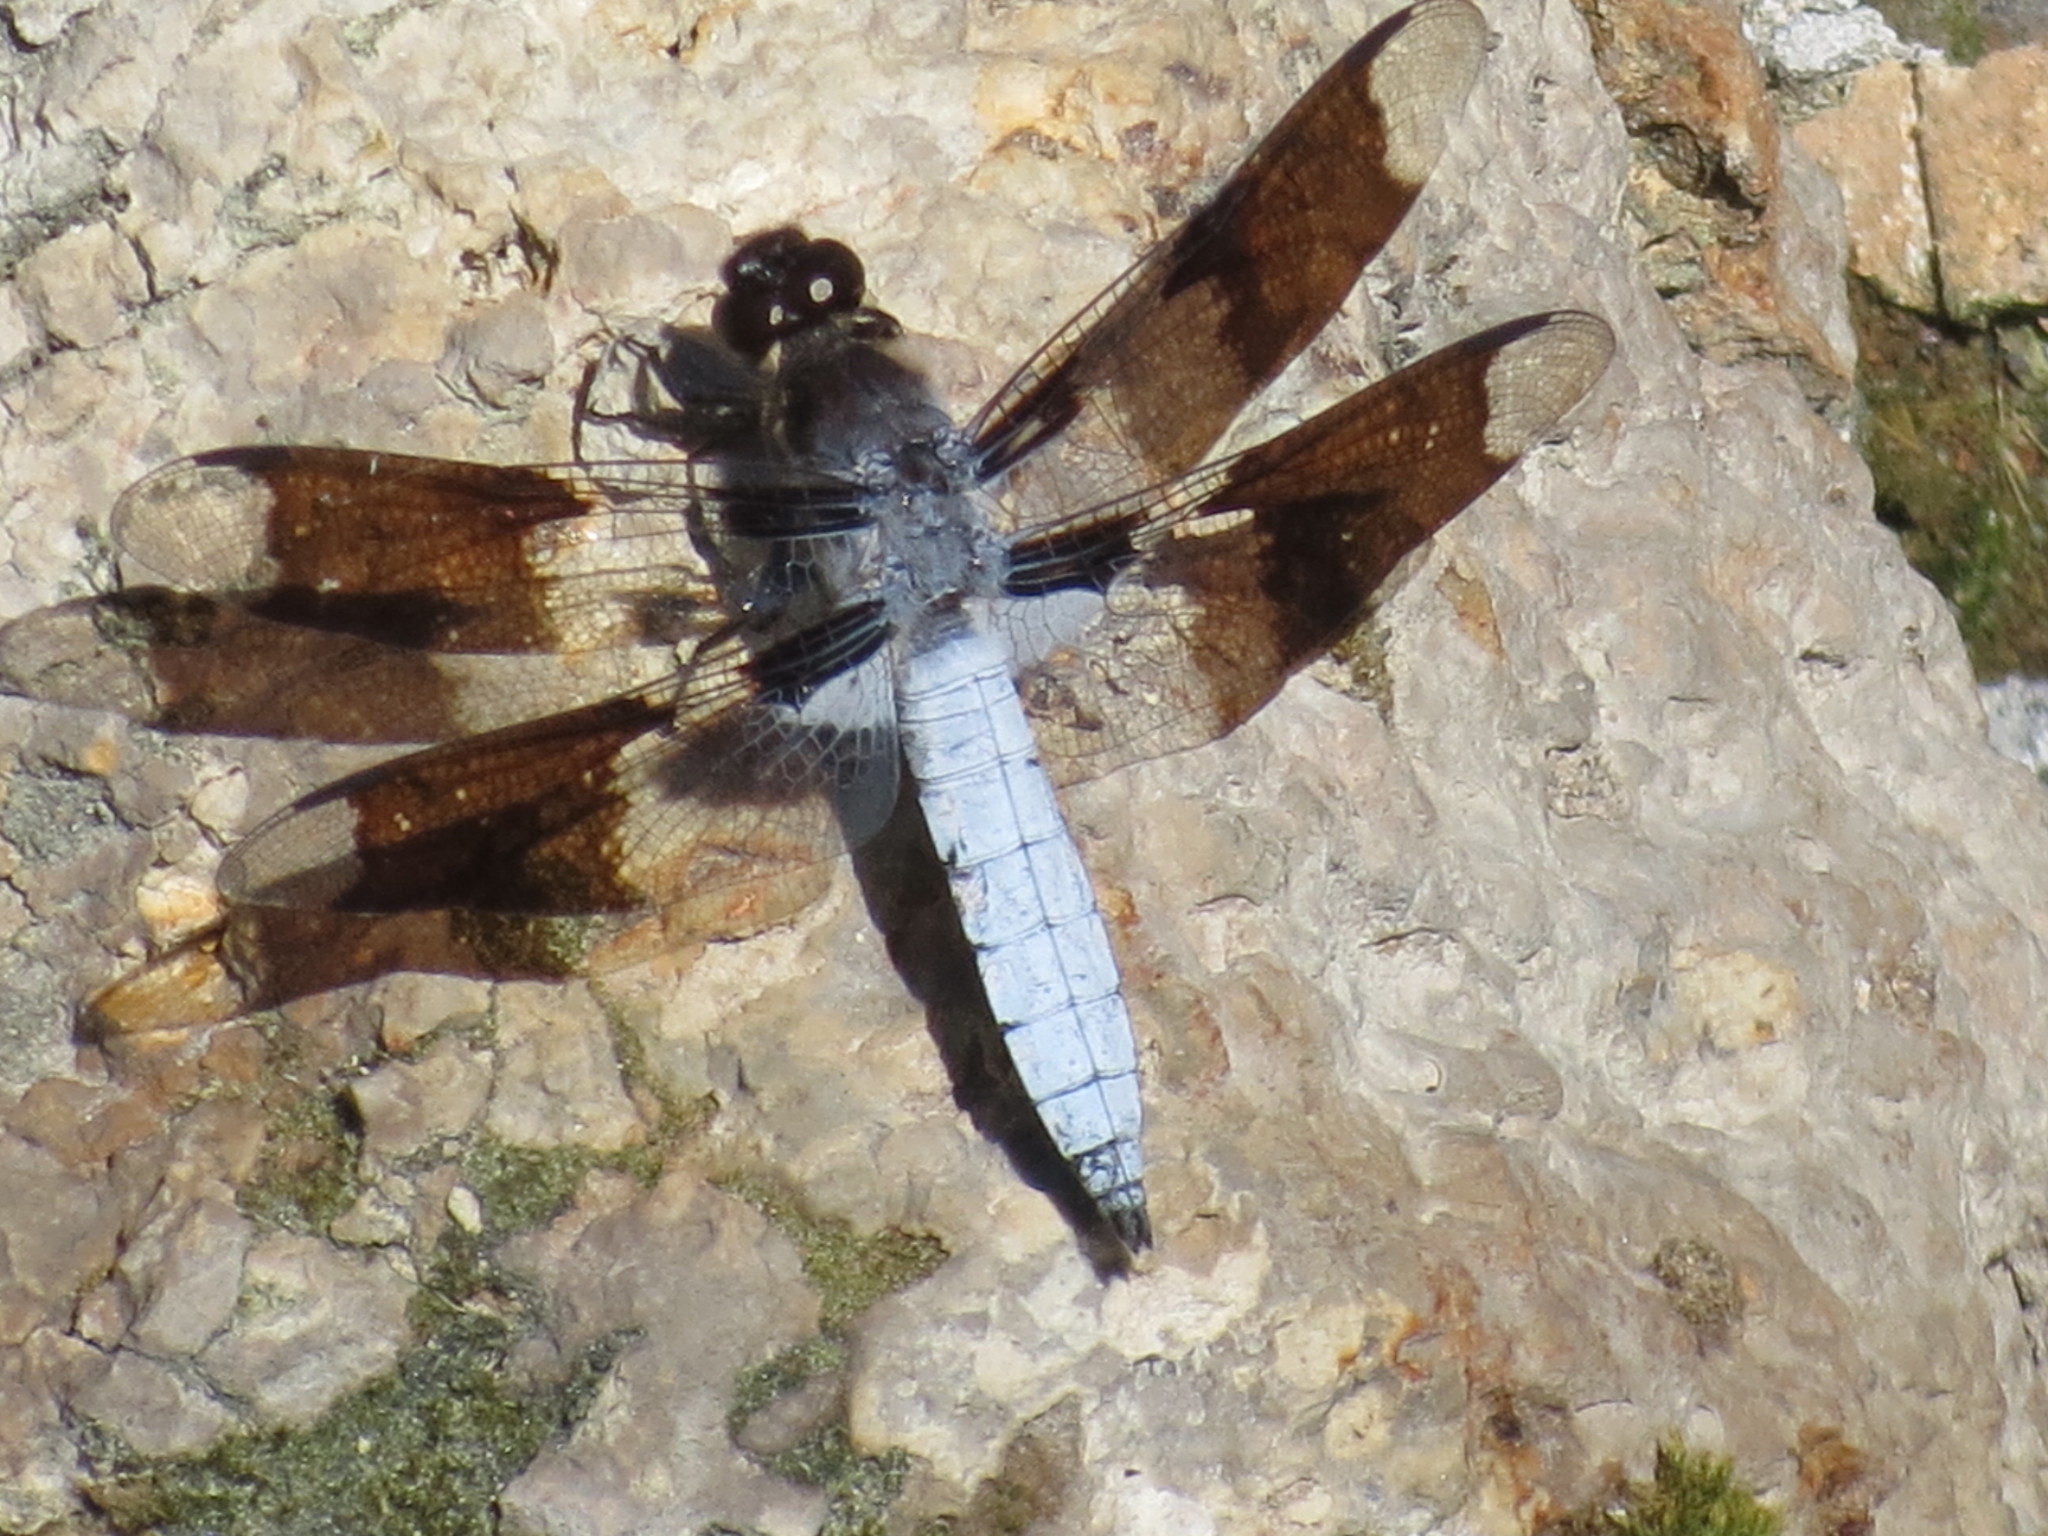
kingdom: Animalia
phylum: Arthropoda
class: Insecta
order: Odonata
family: Libellulidae
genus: Plathemis
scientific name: Plathemis lydia
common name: Common whitetail
